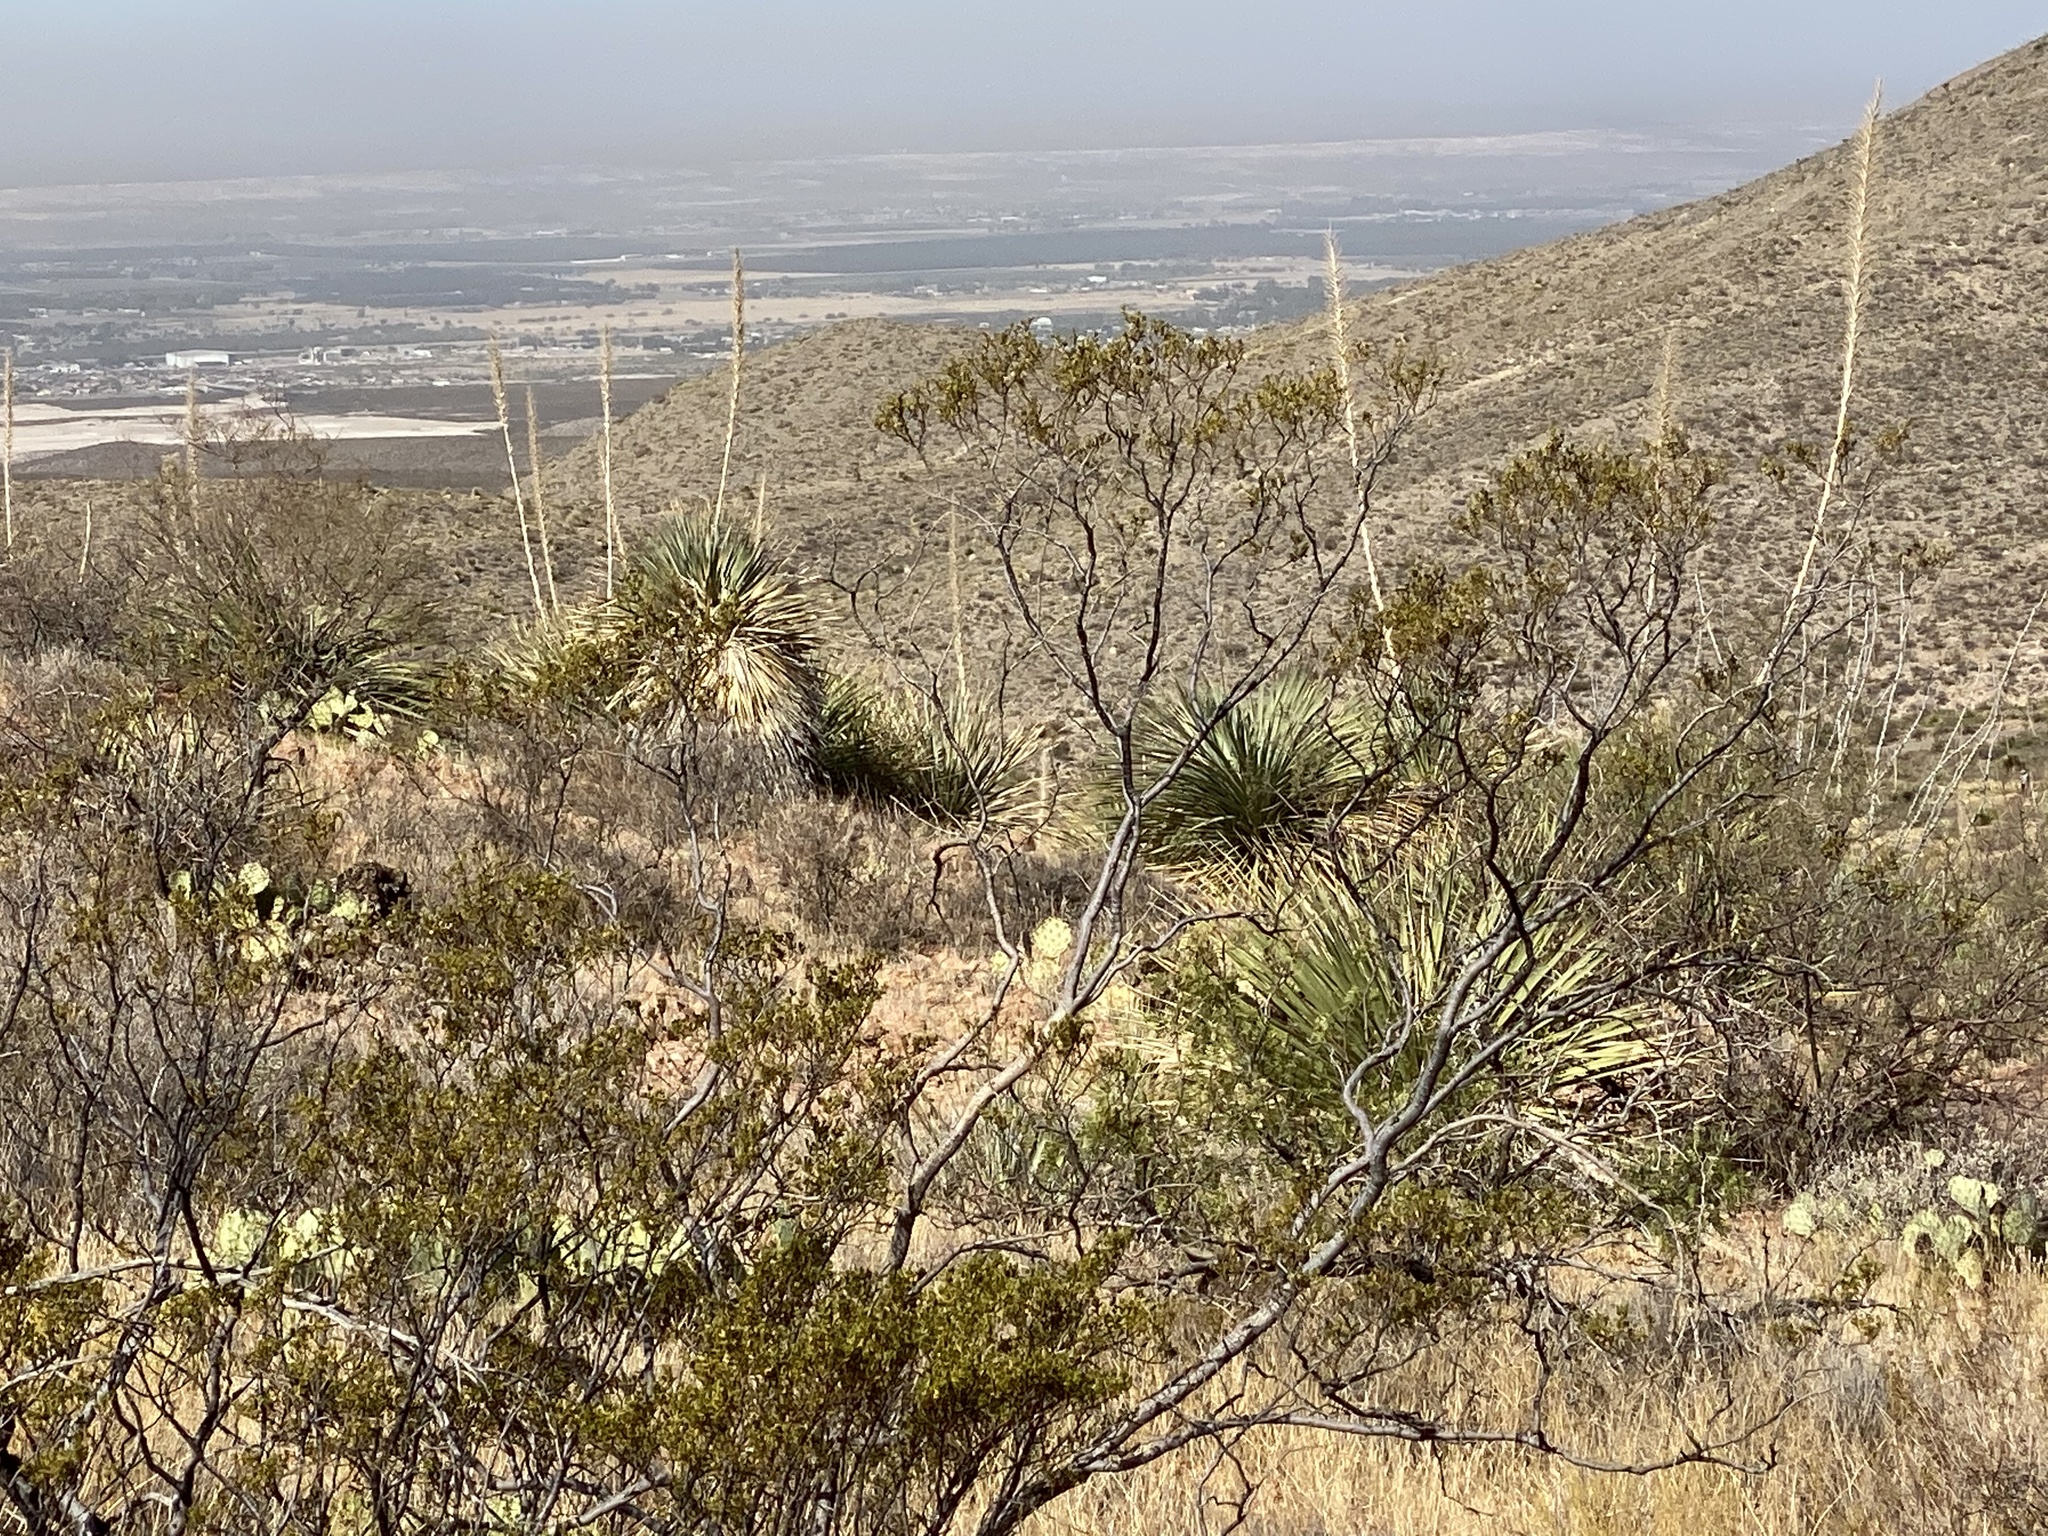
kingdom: Plantae
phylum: Tracheophyta
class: Magnoliopsida
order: Zygophyllales
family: Zygophyllaceae
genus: Larrea
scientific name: Larrea tridentata
